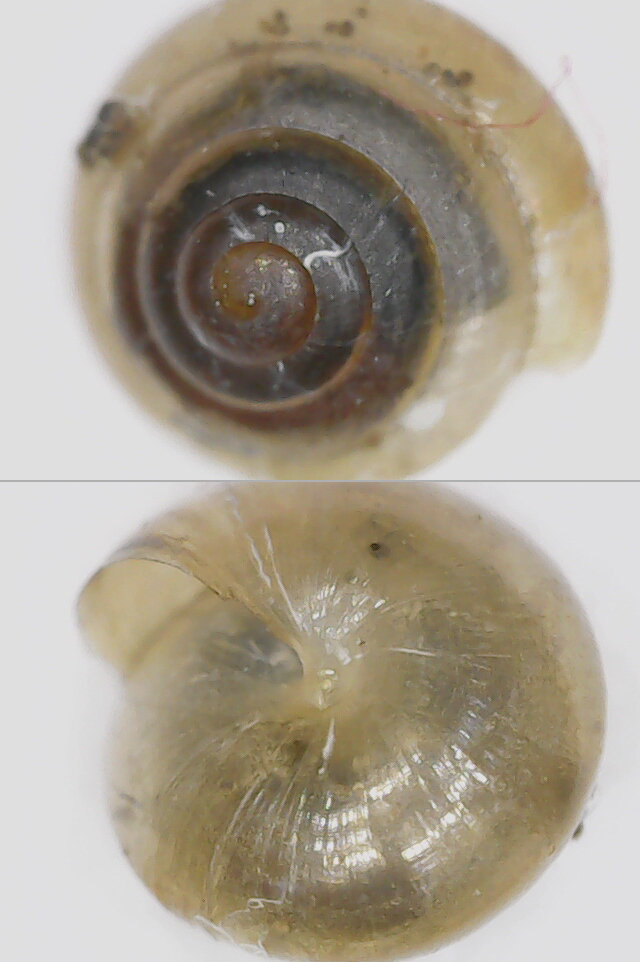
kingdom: Animalia
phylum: Mollusca
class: Gastropoda
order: Stylommatophora
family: Euconulidae
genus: Euconulus
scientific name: Euconulus fulvus
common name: Tawny glass snail
